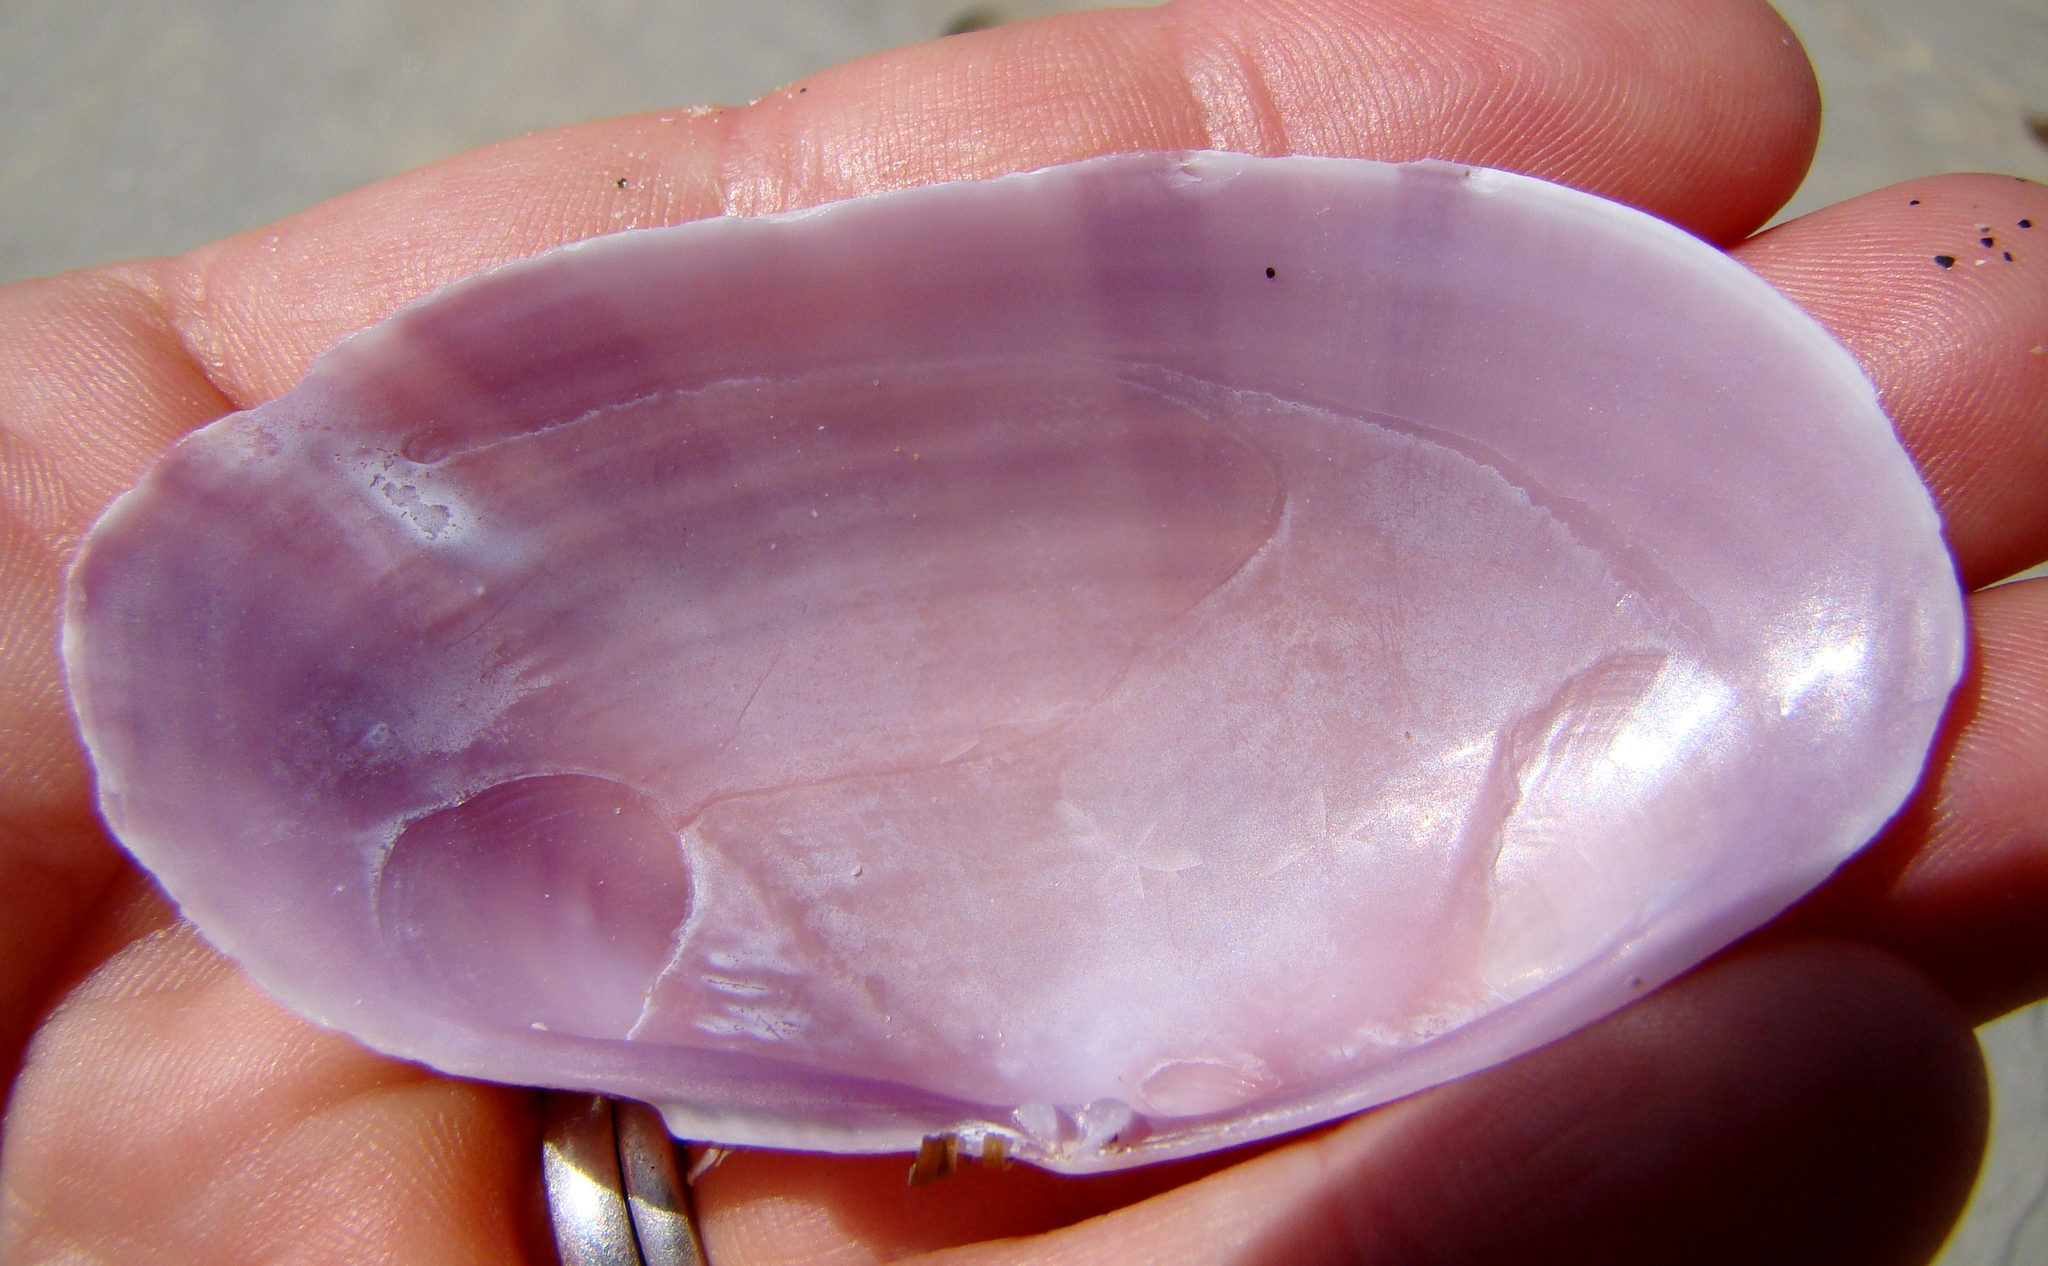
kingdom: Animalia
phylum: Mollusca
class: Bivalvia
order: Cardiida
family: Psammobiidae
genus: Gari
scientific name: Gari convexa
